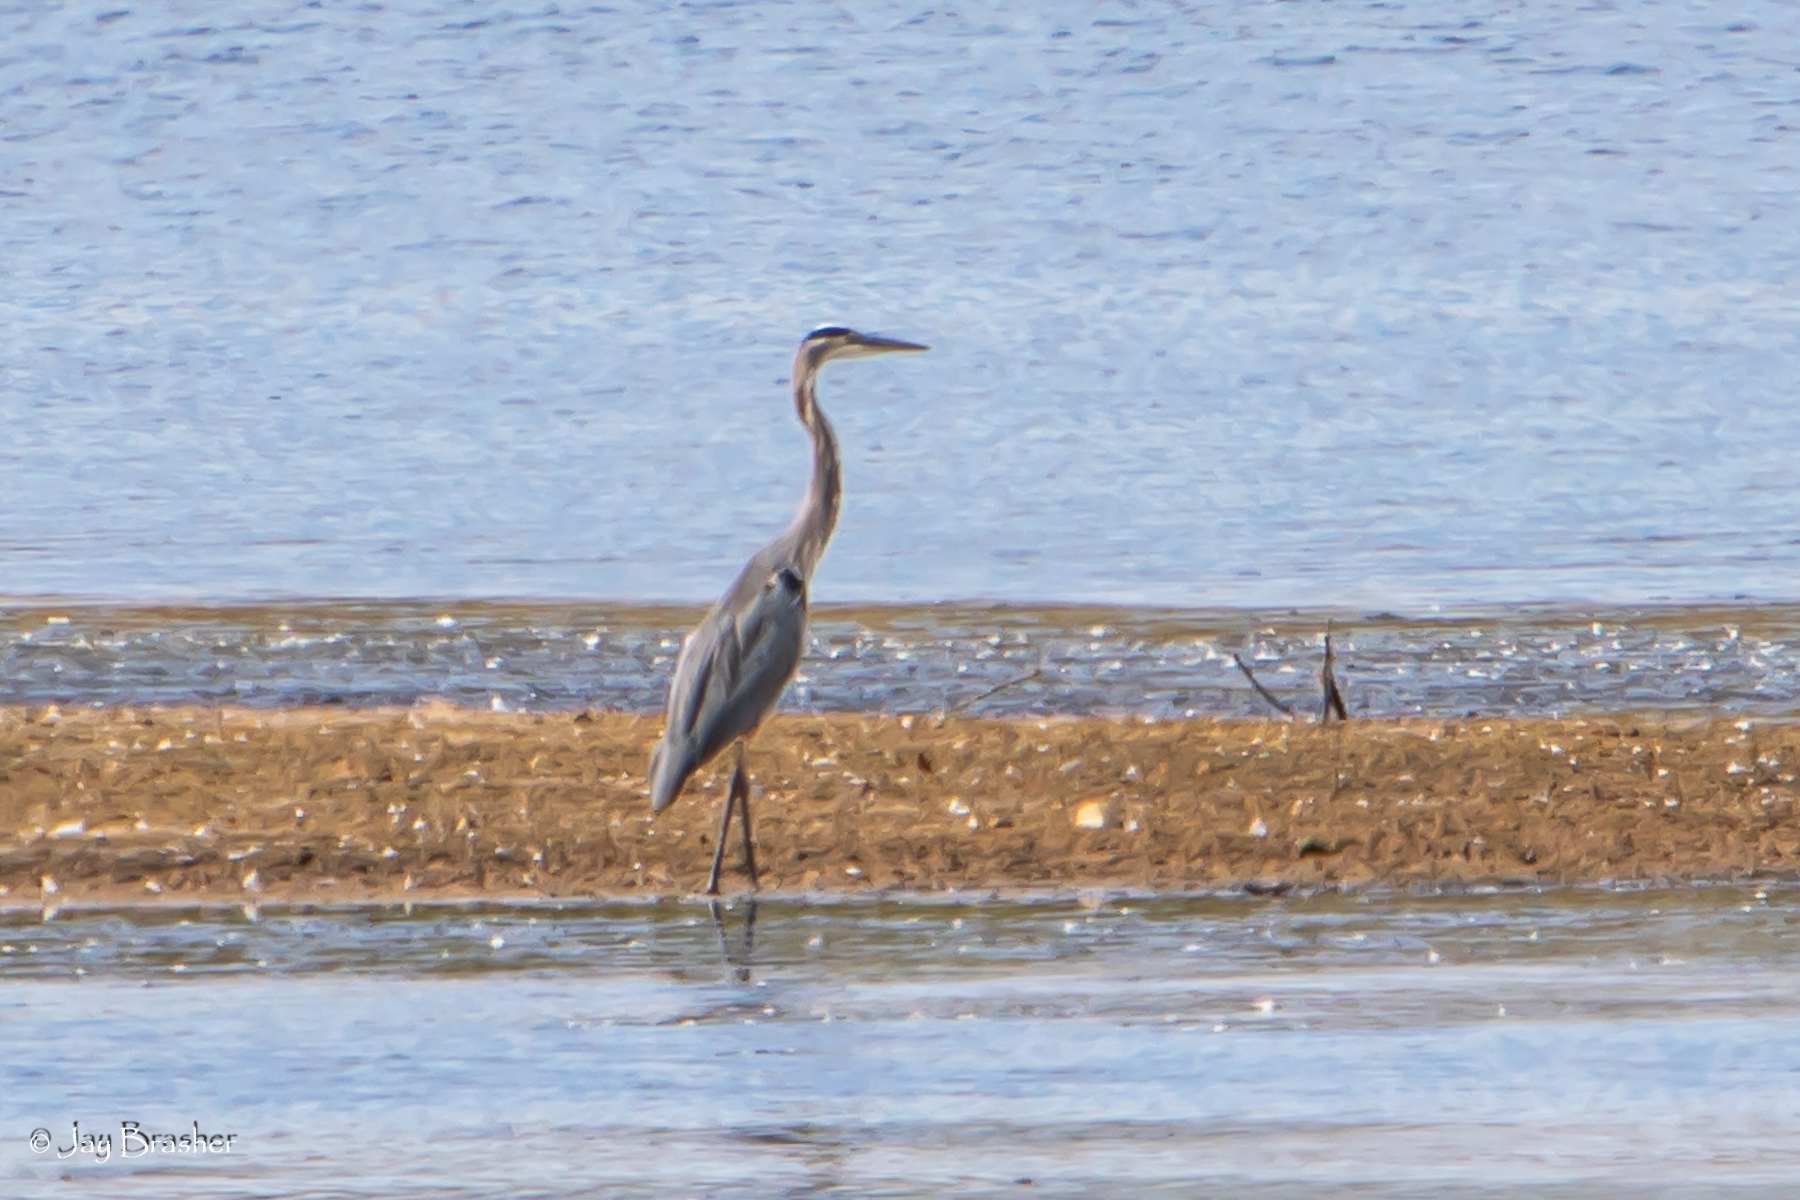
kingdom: Animalia
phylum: Chordata
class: Aves
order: Pelecaniformes
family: Ardeidae
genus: Ardea
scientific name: Ardea herodias
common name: Great blue heron
